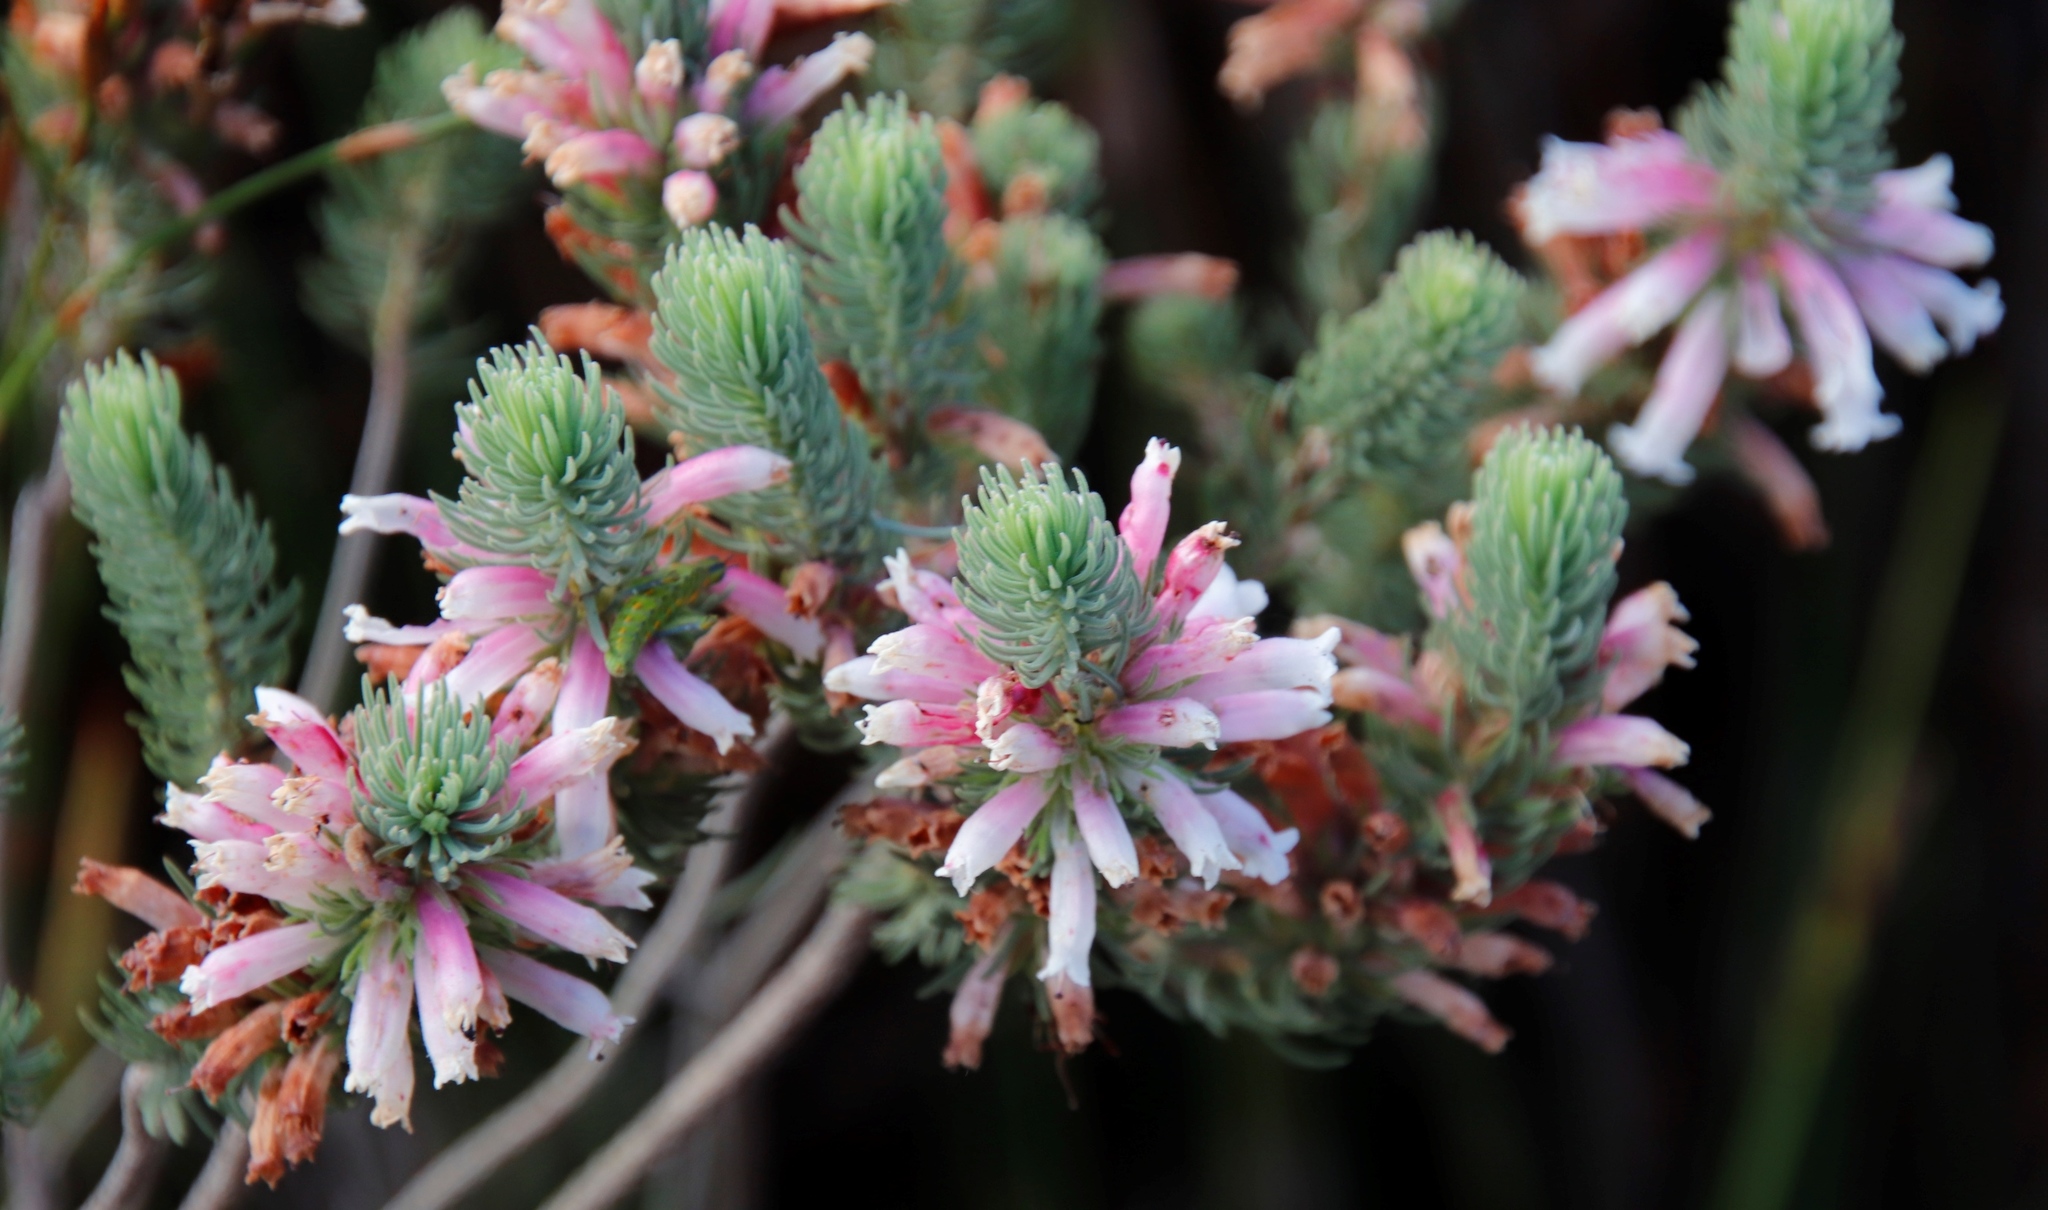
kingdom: Plantae
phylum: Tracheophyta
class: Magnoliopsida
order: Ericales
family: Ericaceae
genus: Erica
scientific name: Erica viscaria
